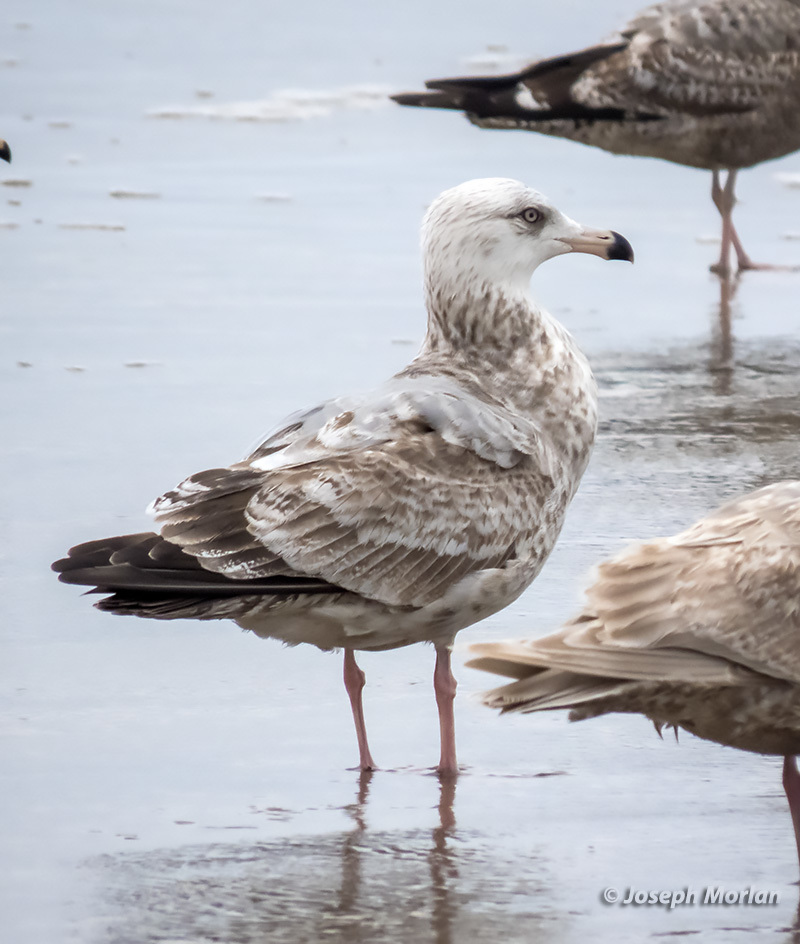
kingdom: Animalia
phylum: Chordata
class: Aves
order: Charadriiformes
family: Laridae
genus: Larus
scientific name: Larus argentatus
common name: Herring gull
